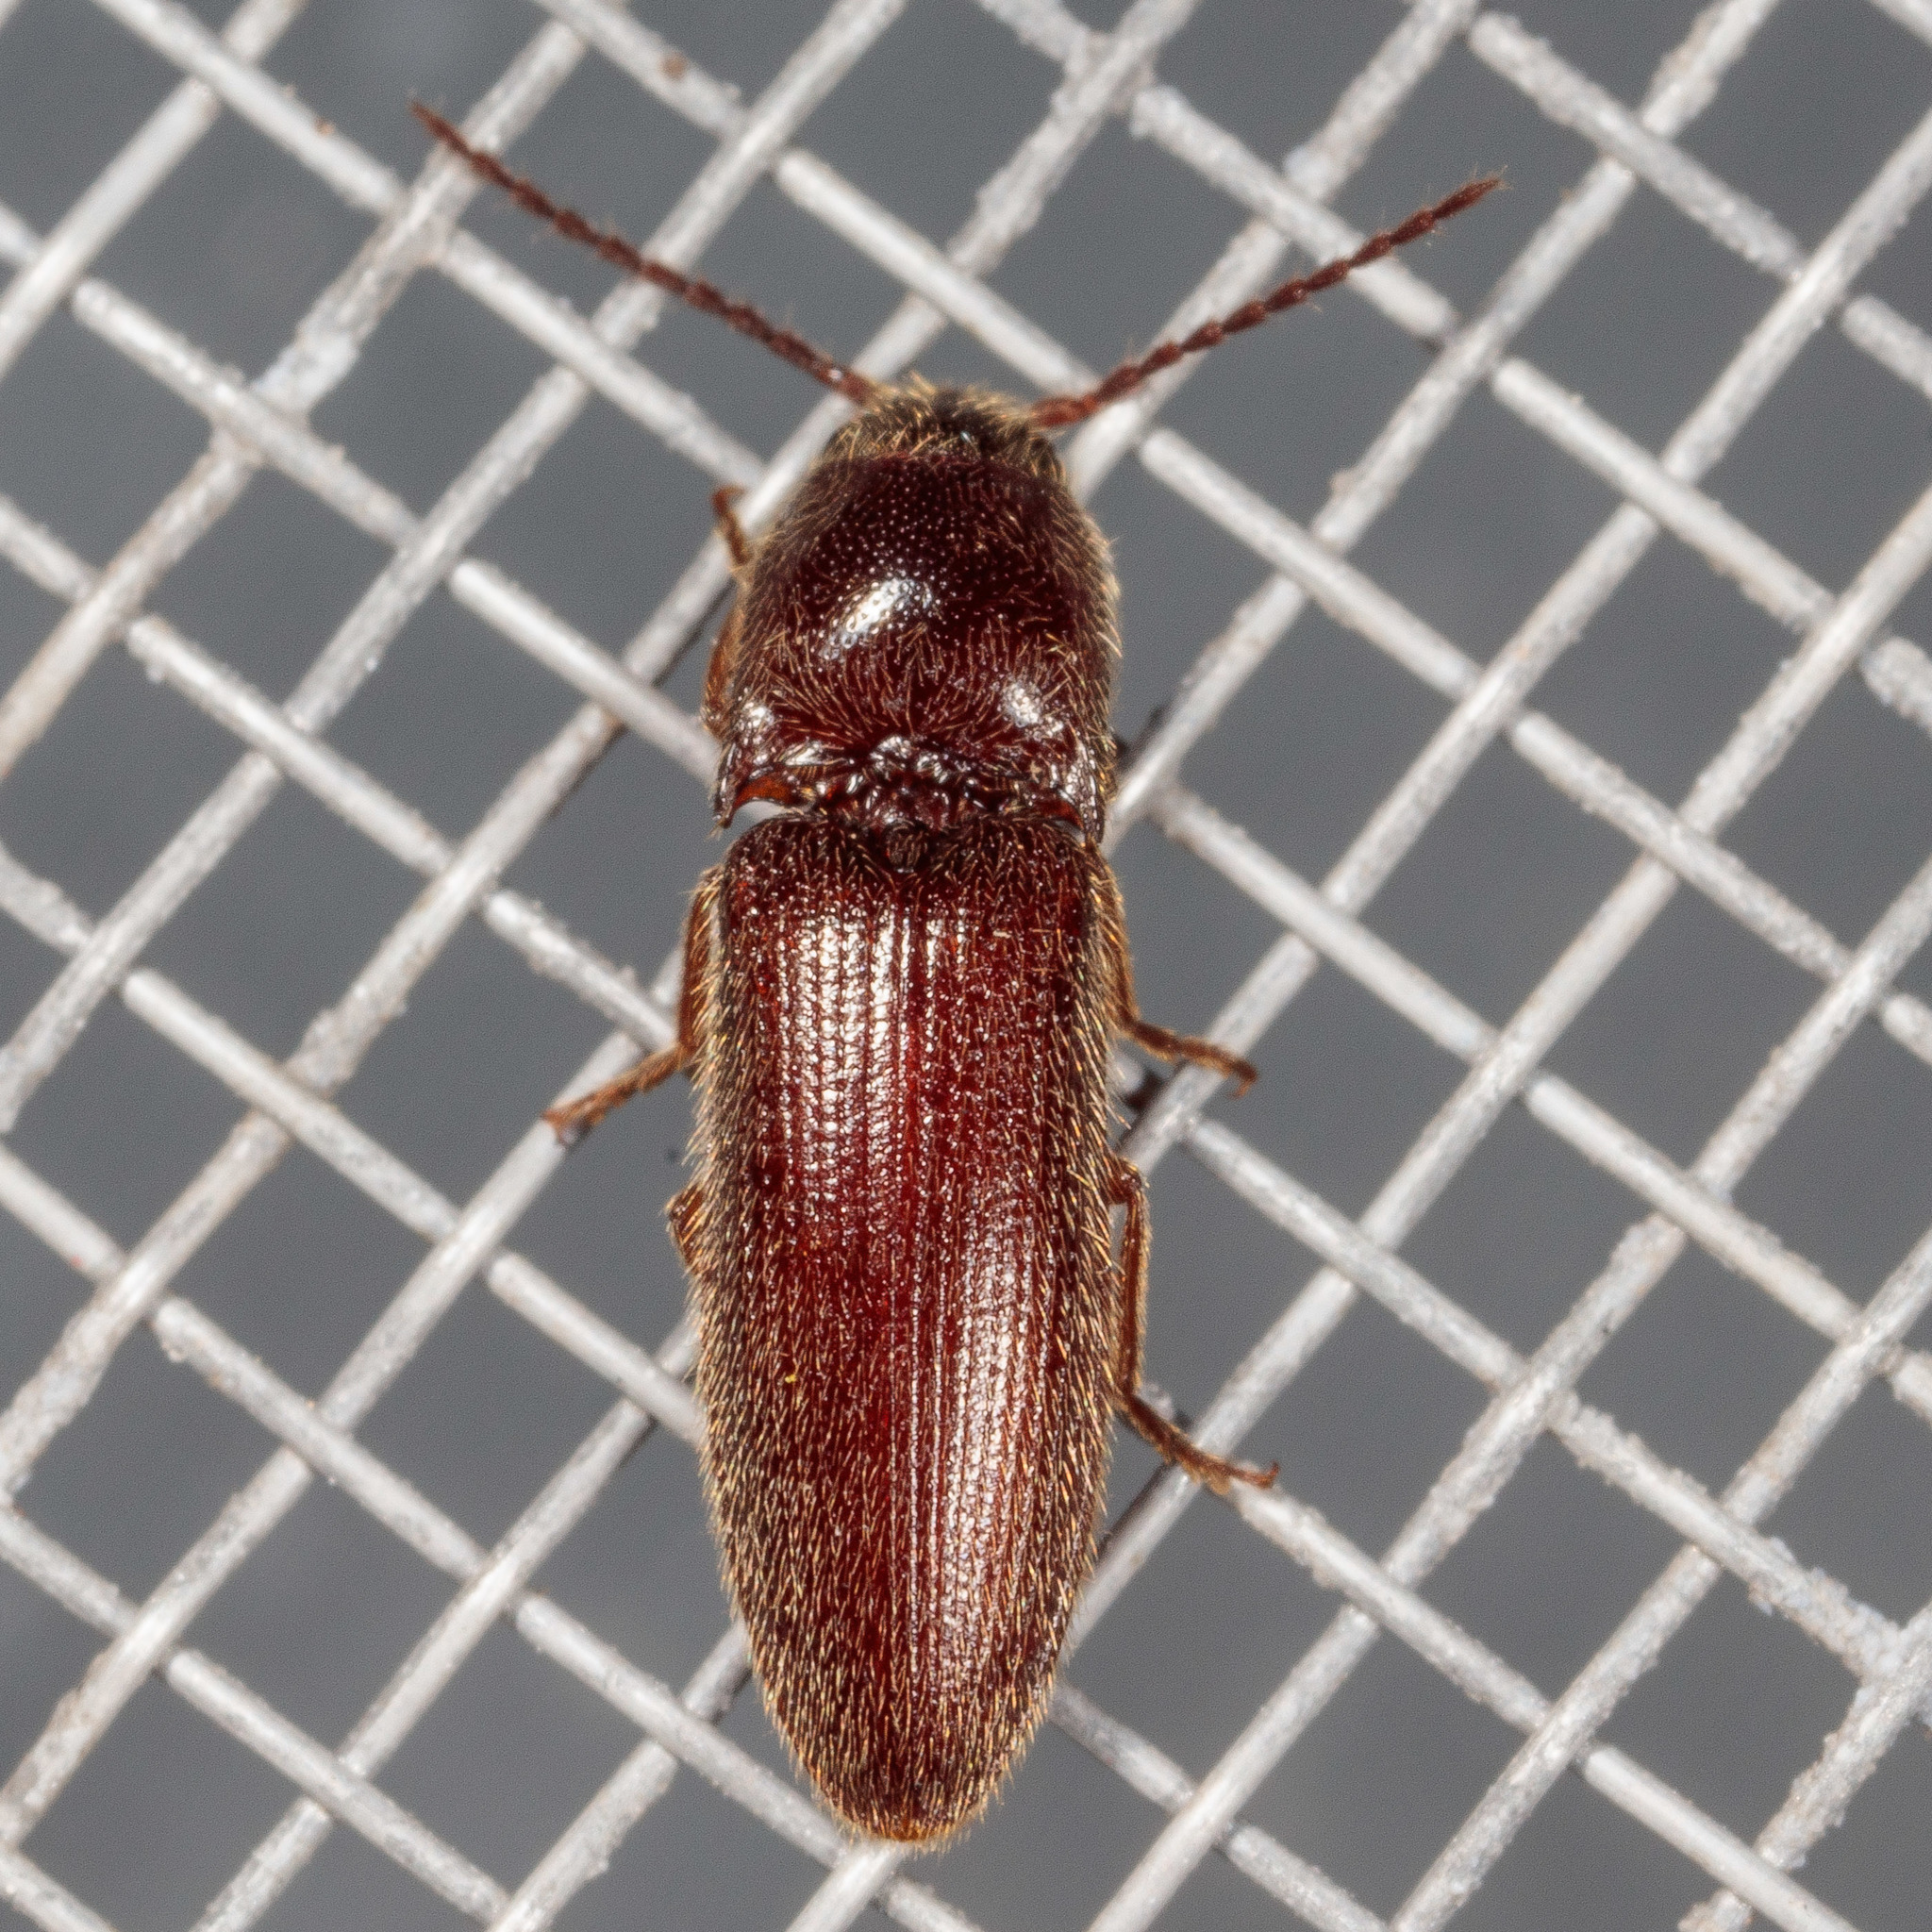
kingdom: Animalia
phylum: Arthropoda
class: Insecta
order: Coleoptera
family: Elateridae
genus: Dipropus
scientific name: Dipropus
